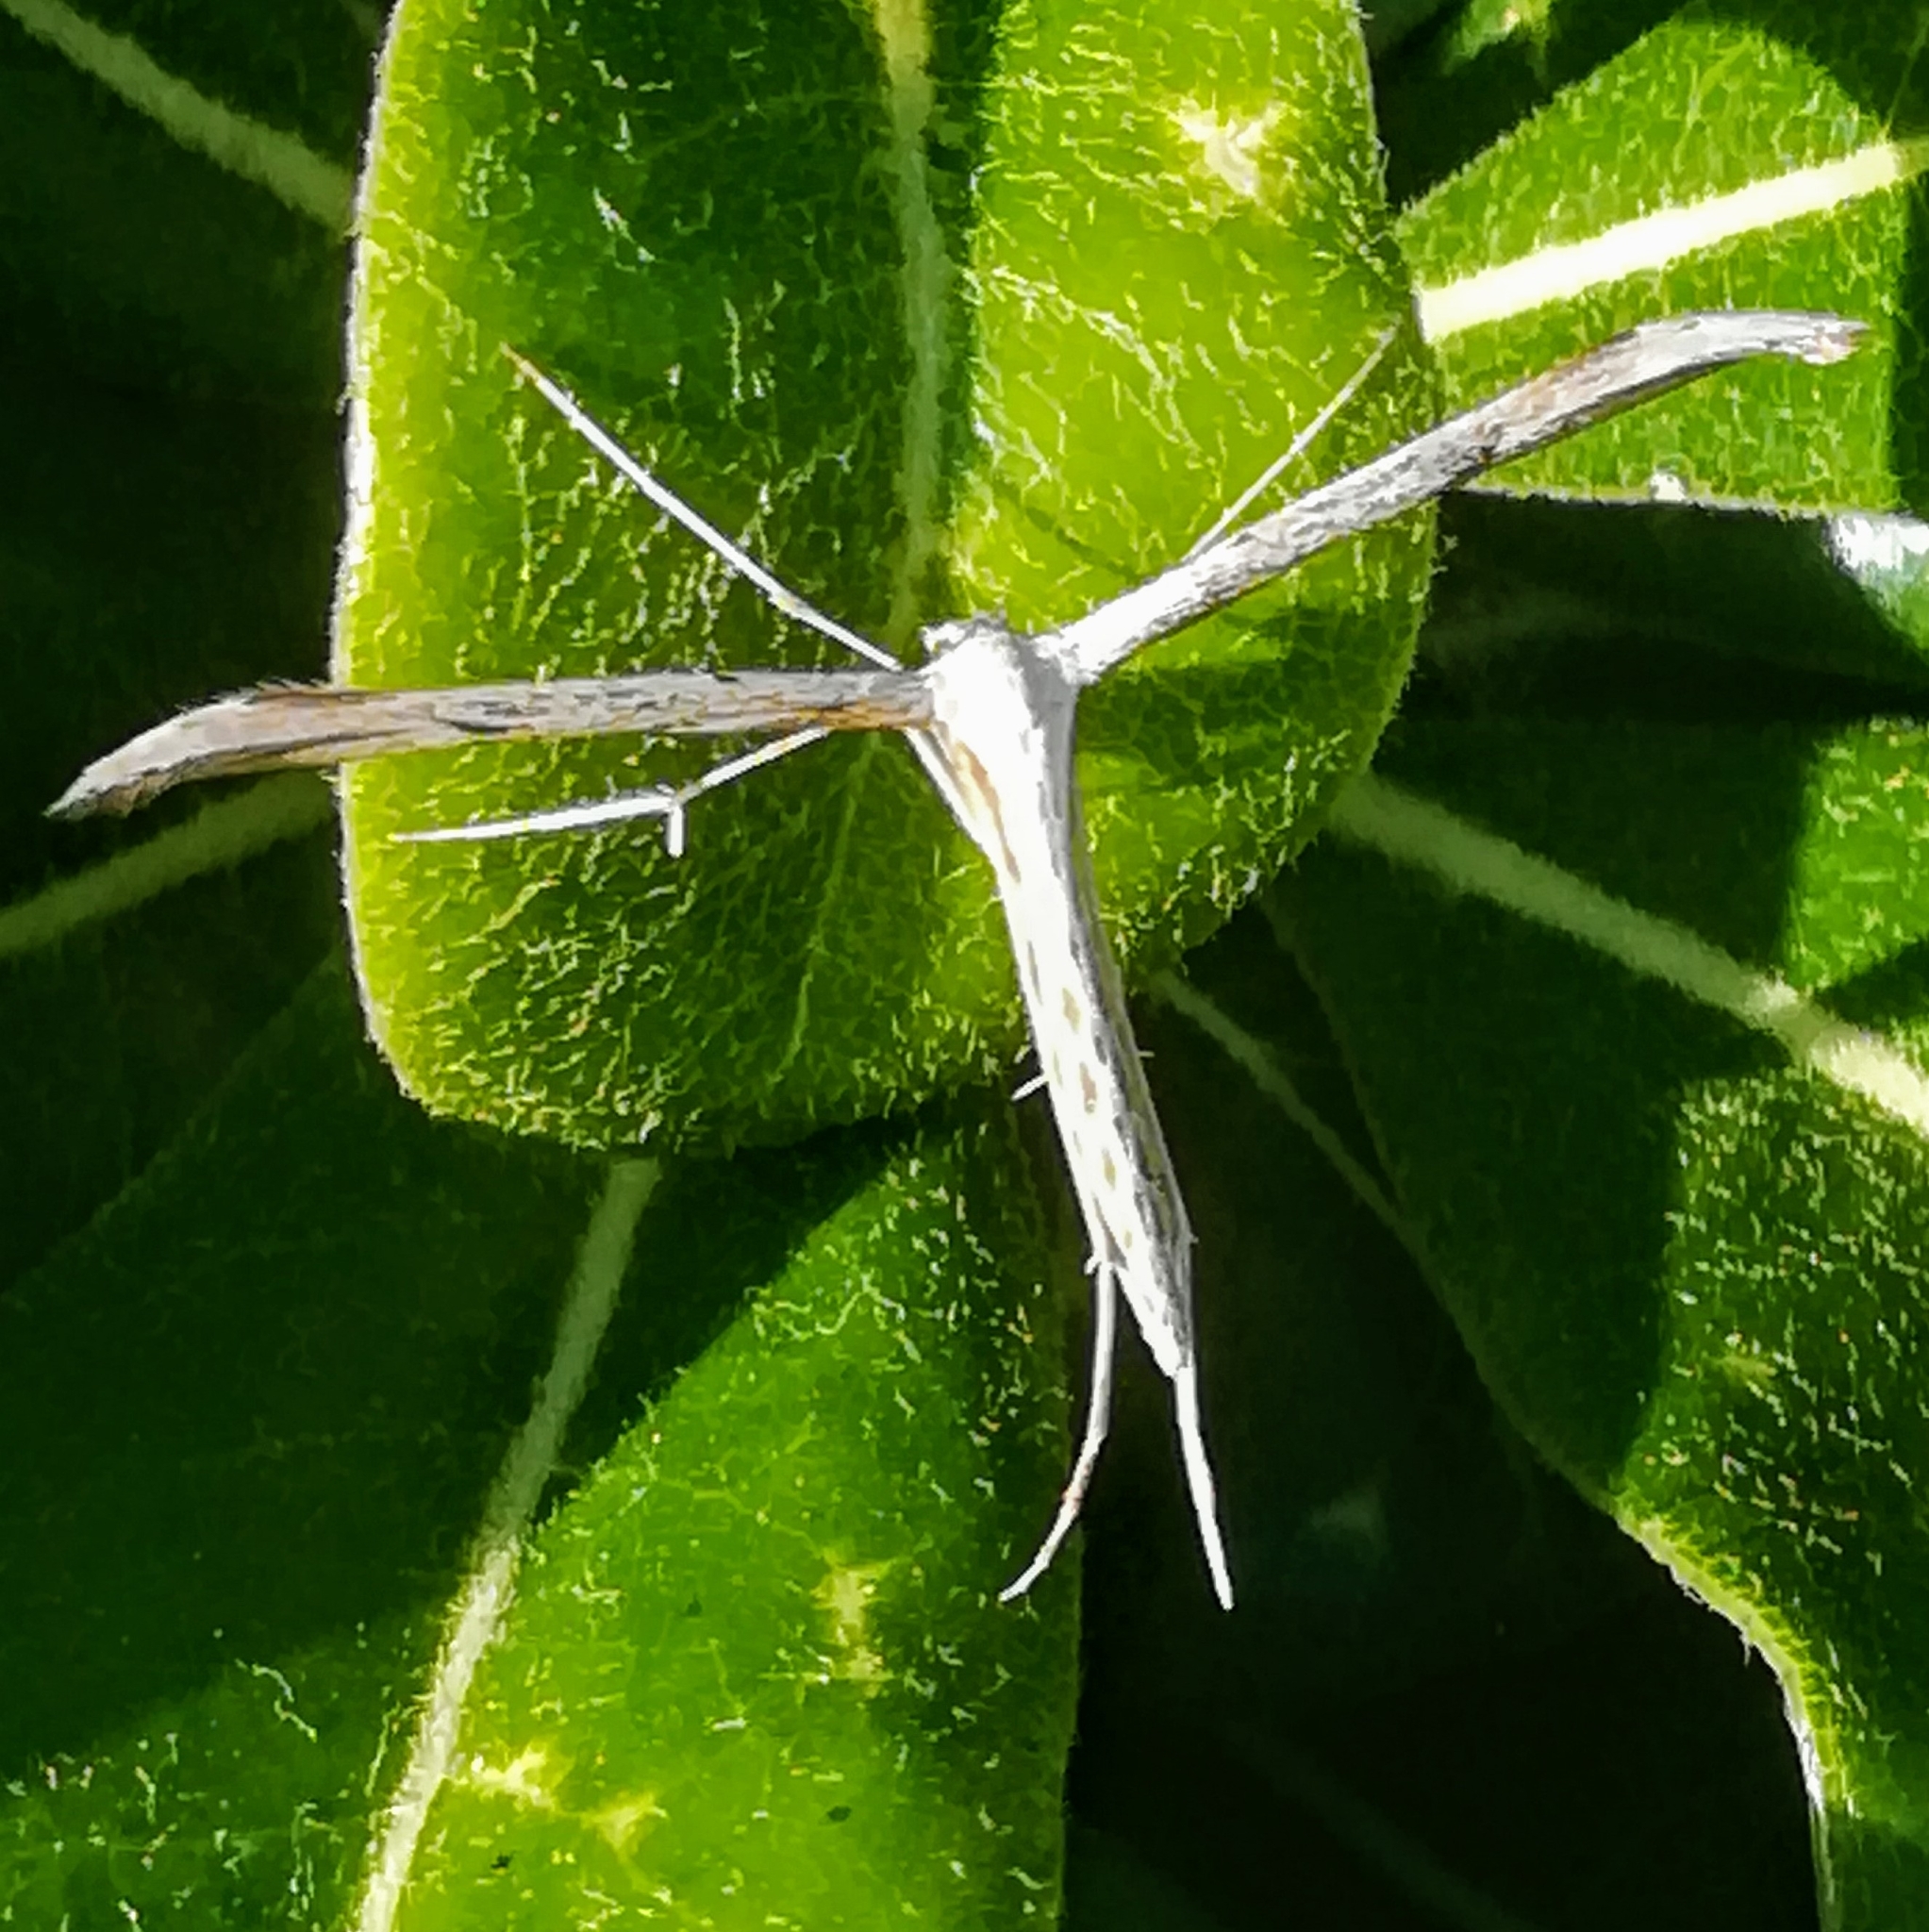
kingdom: Animalia
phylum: Arthropoda
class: Insecta
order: Lepidoptera
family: Pterophoridae
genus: Emmelina
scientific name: Emmelina monodactyla
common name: Common plume
